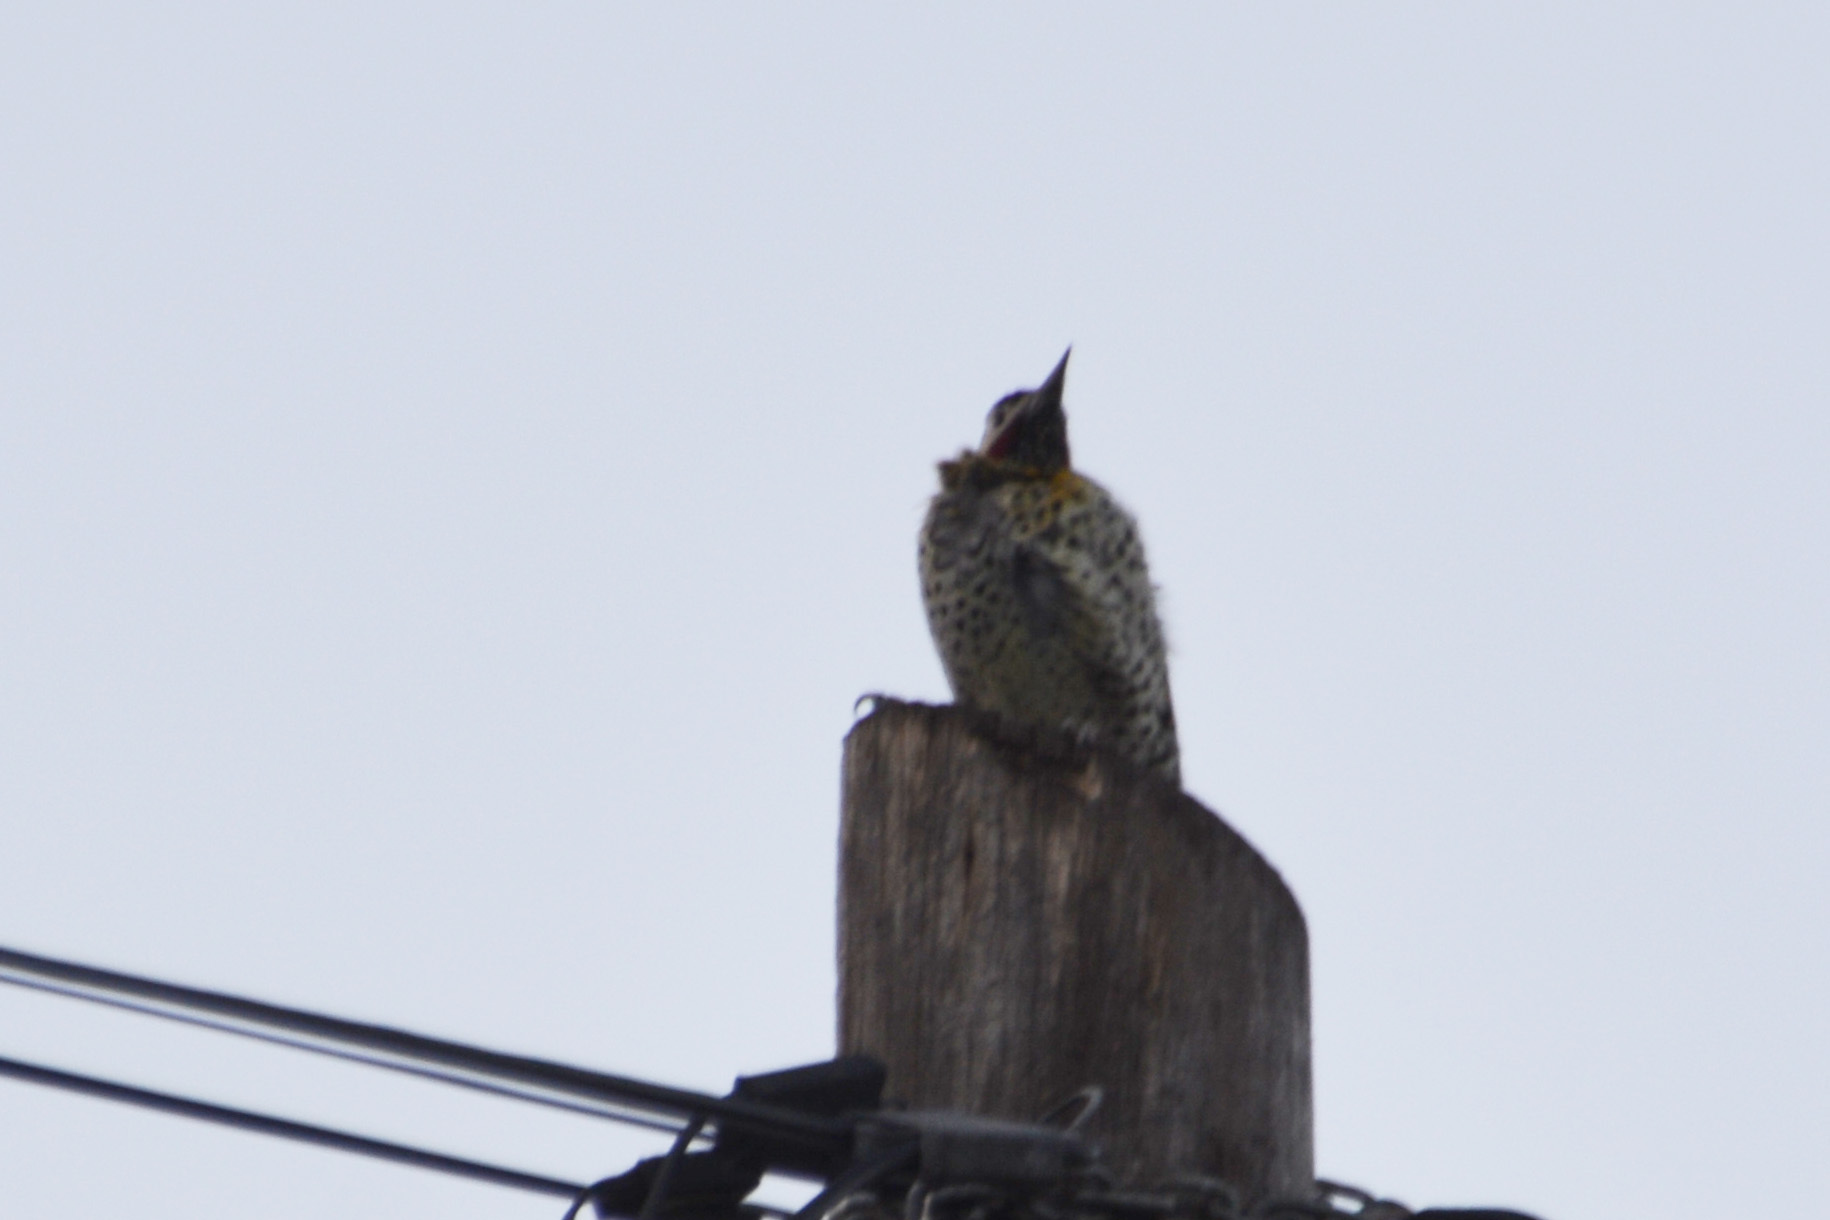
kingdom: Animalia
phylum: Chordata
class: Aves
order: Piciformes
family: Picidae
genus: Colaptes
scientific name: Colaptes melanochloros
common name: Green-barred woodpecker
